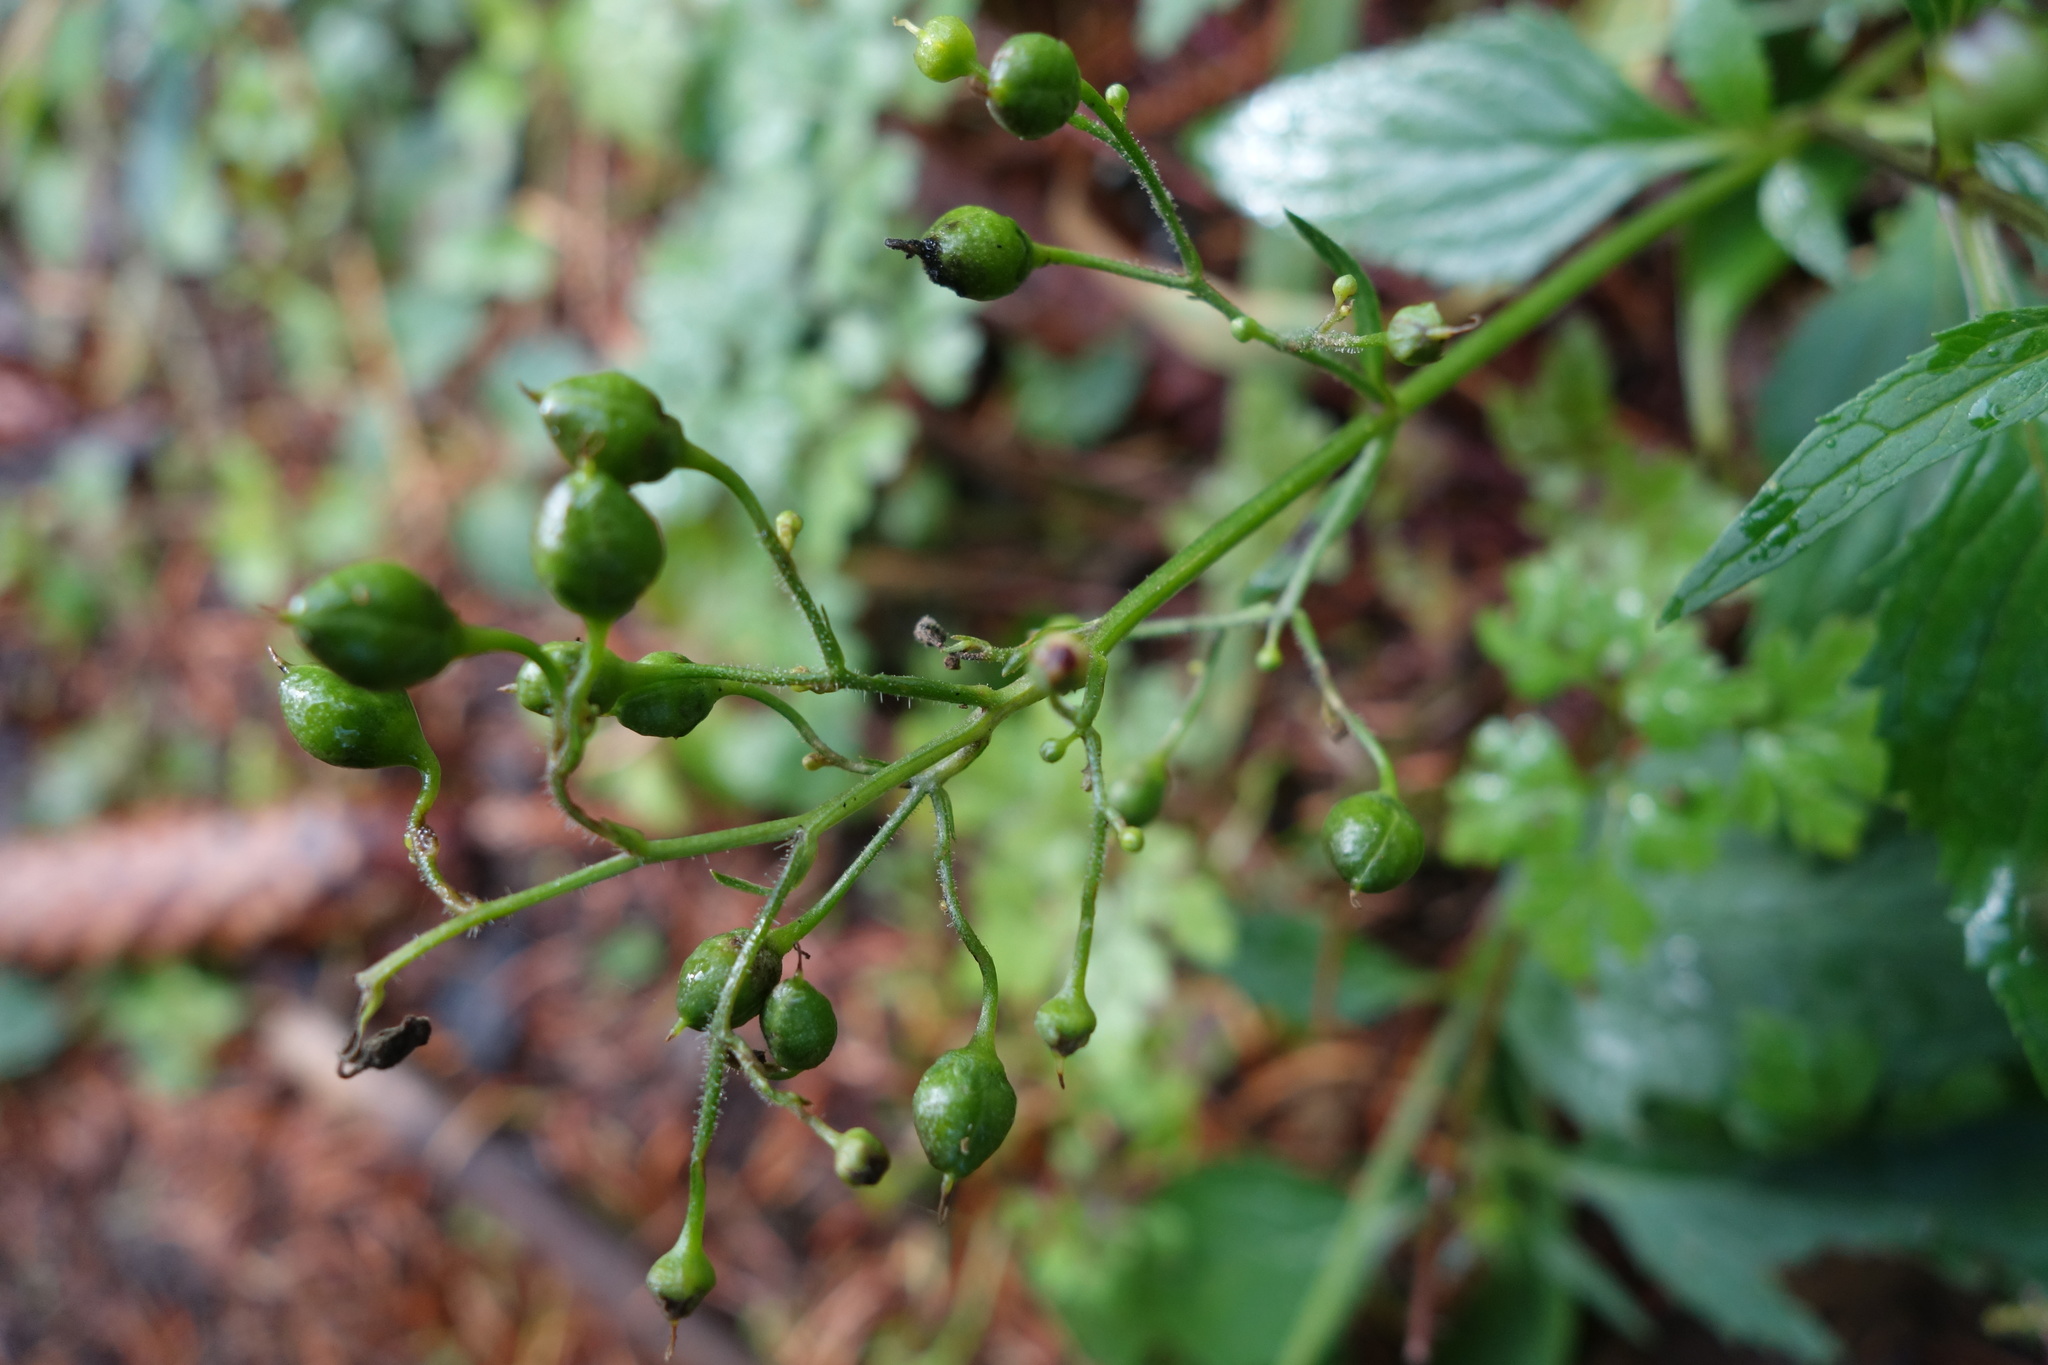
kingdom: Plantae
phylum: Tracheophyta
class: Magnoliopsida
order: Lamiales
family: Scrophulariaceae
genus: Scrophularia
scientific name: Scrophularia nodosa
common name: Common figwort
